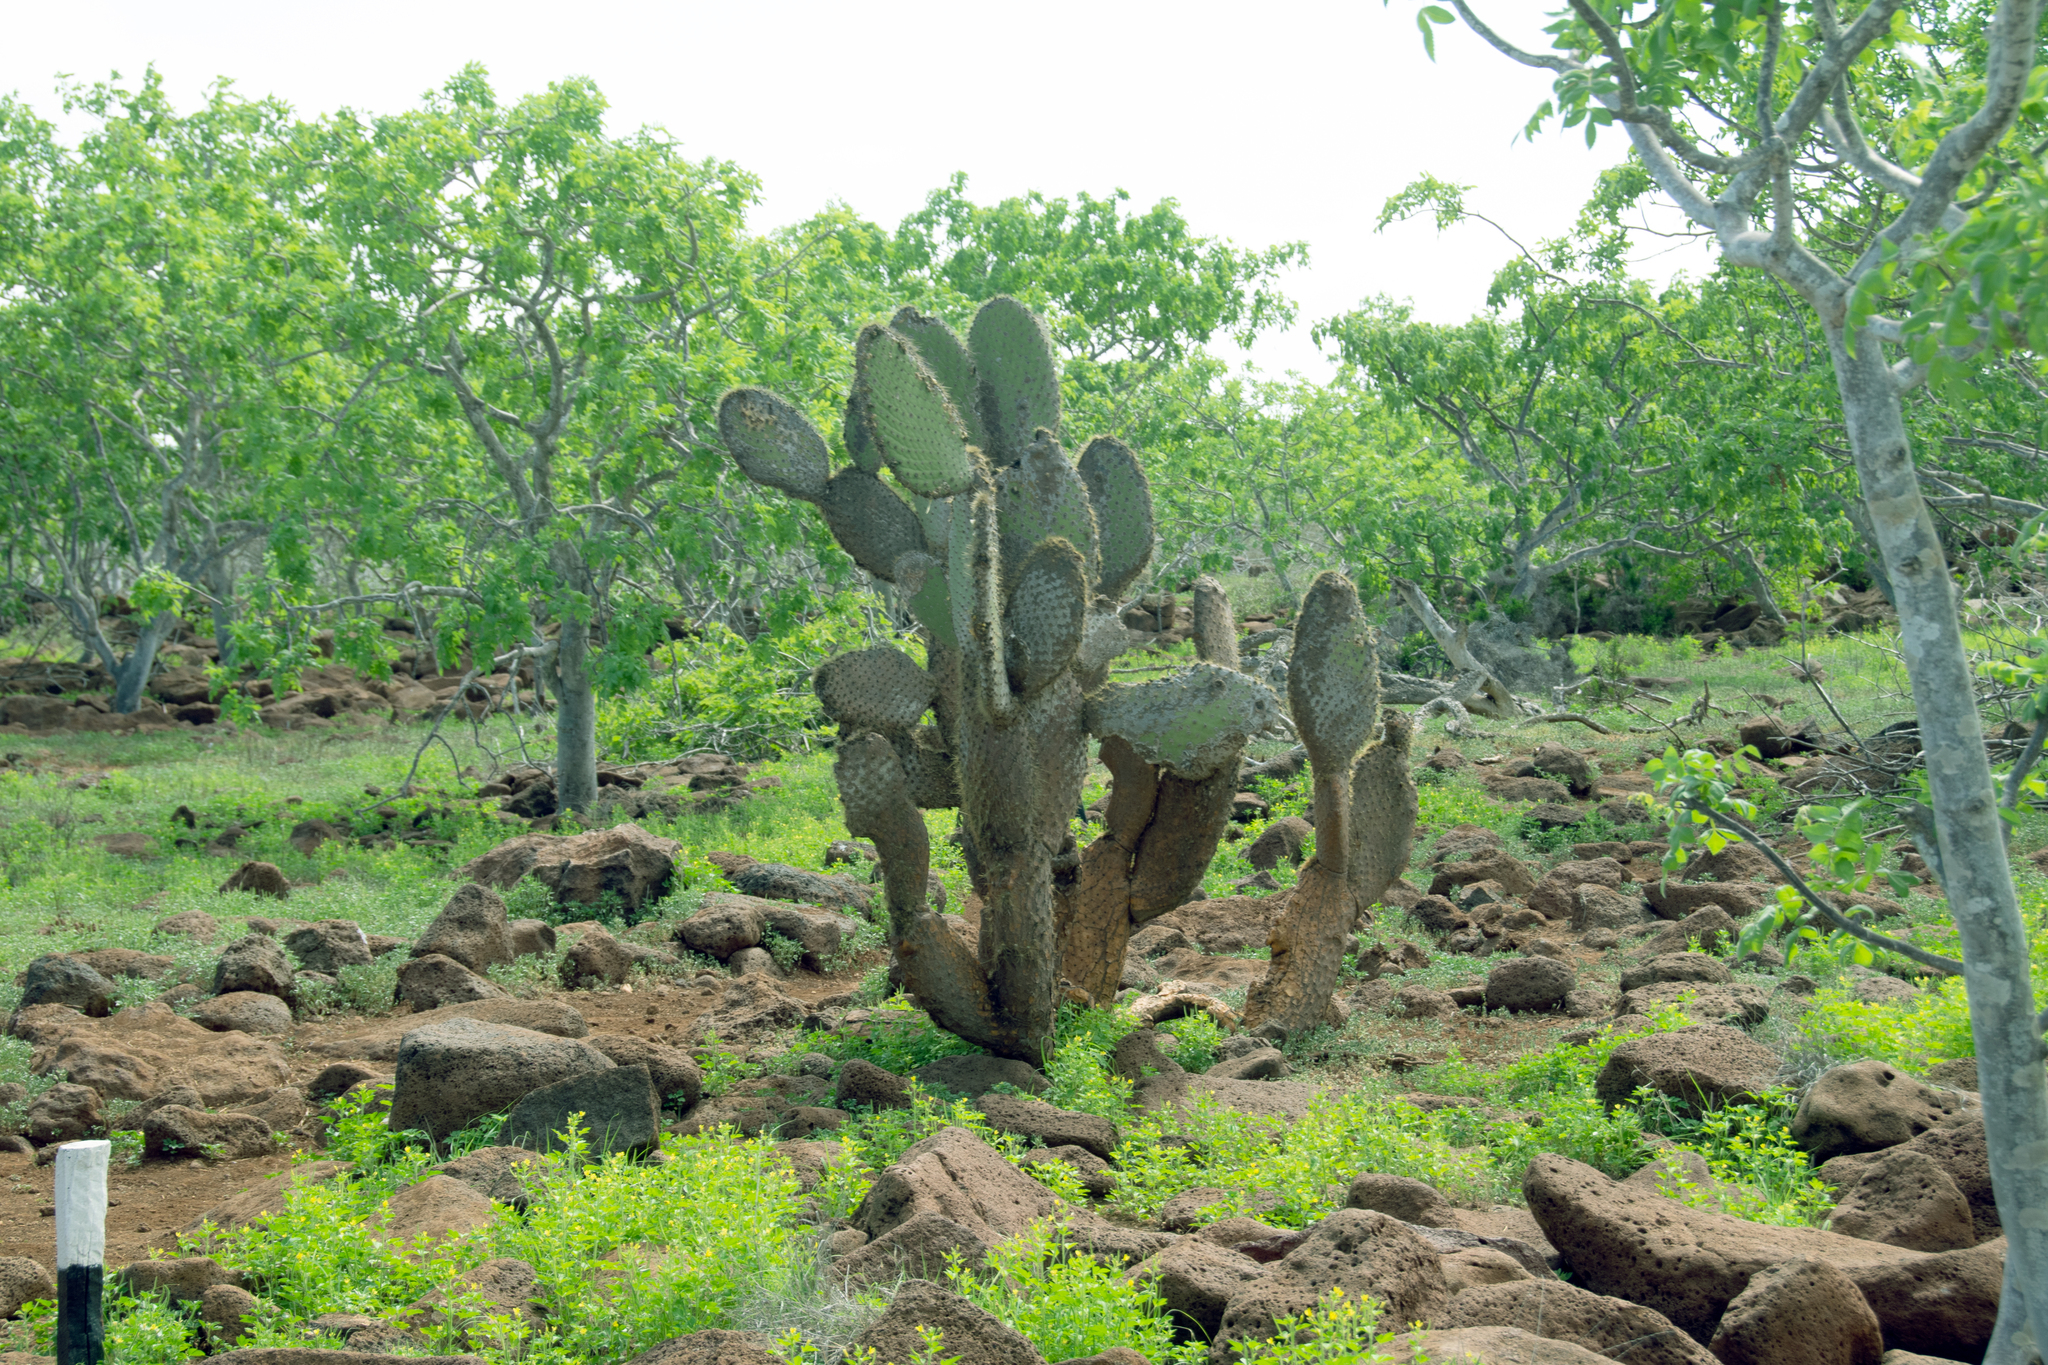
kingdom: Plantae
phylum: Tracheophyta
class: Magnoliopsida
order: Caryophyllales
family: Cactaceae
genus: Opuntia
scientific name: Opuntia galapageia
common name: Galápagos prickly pear
